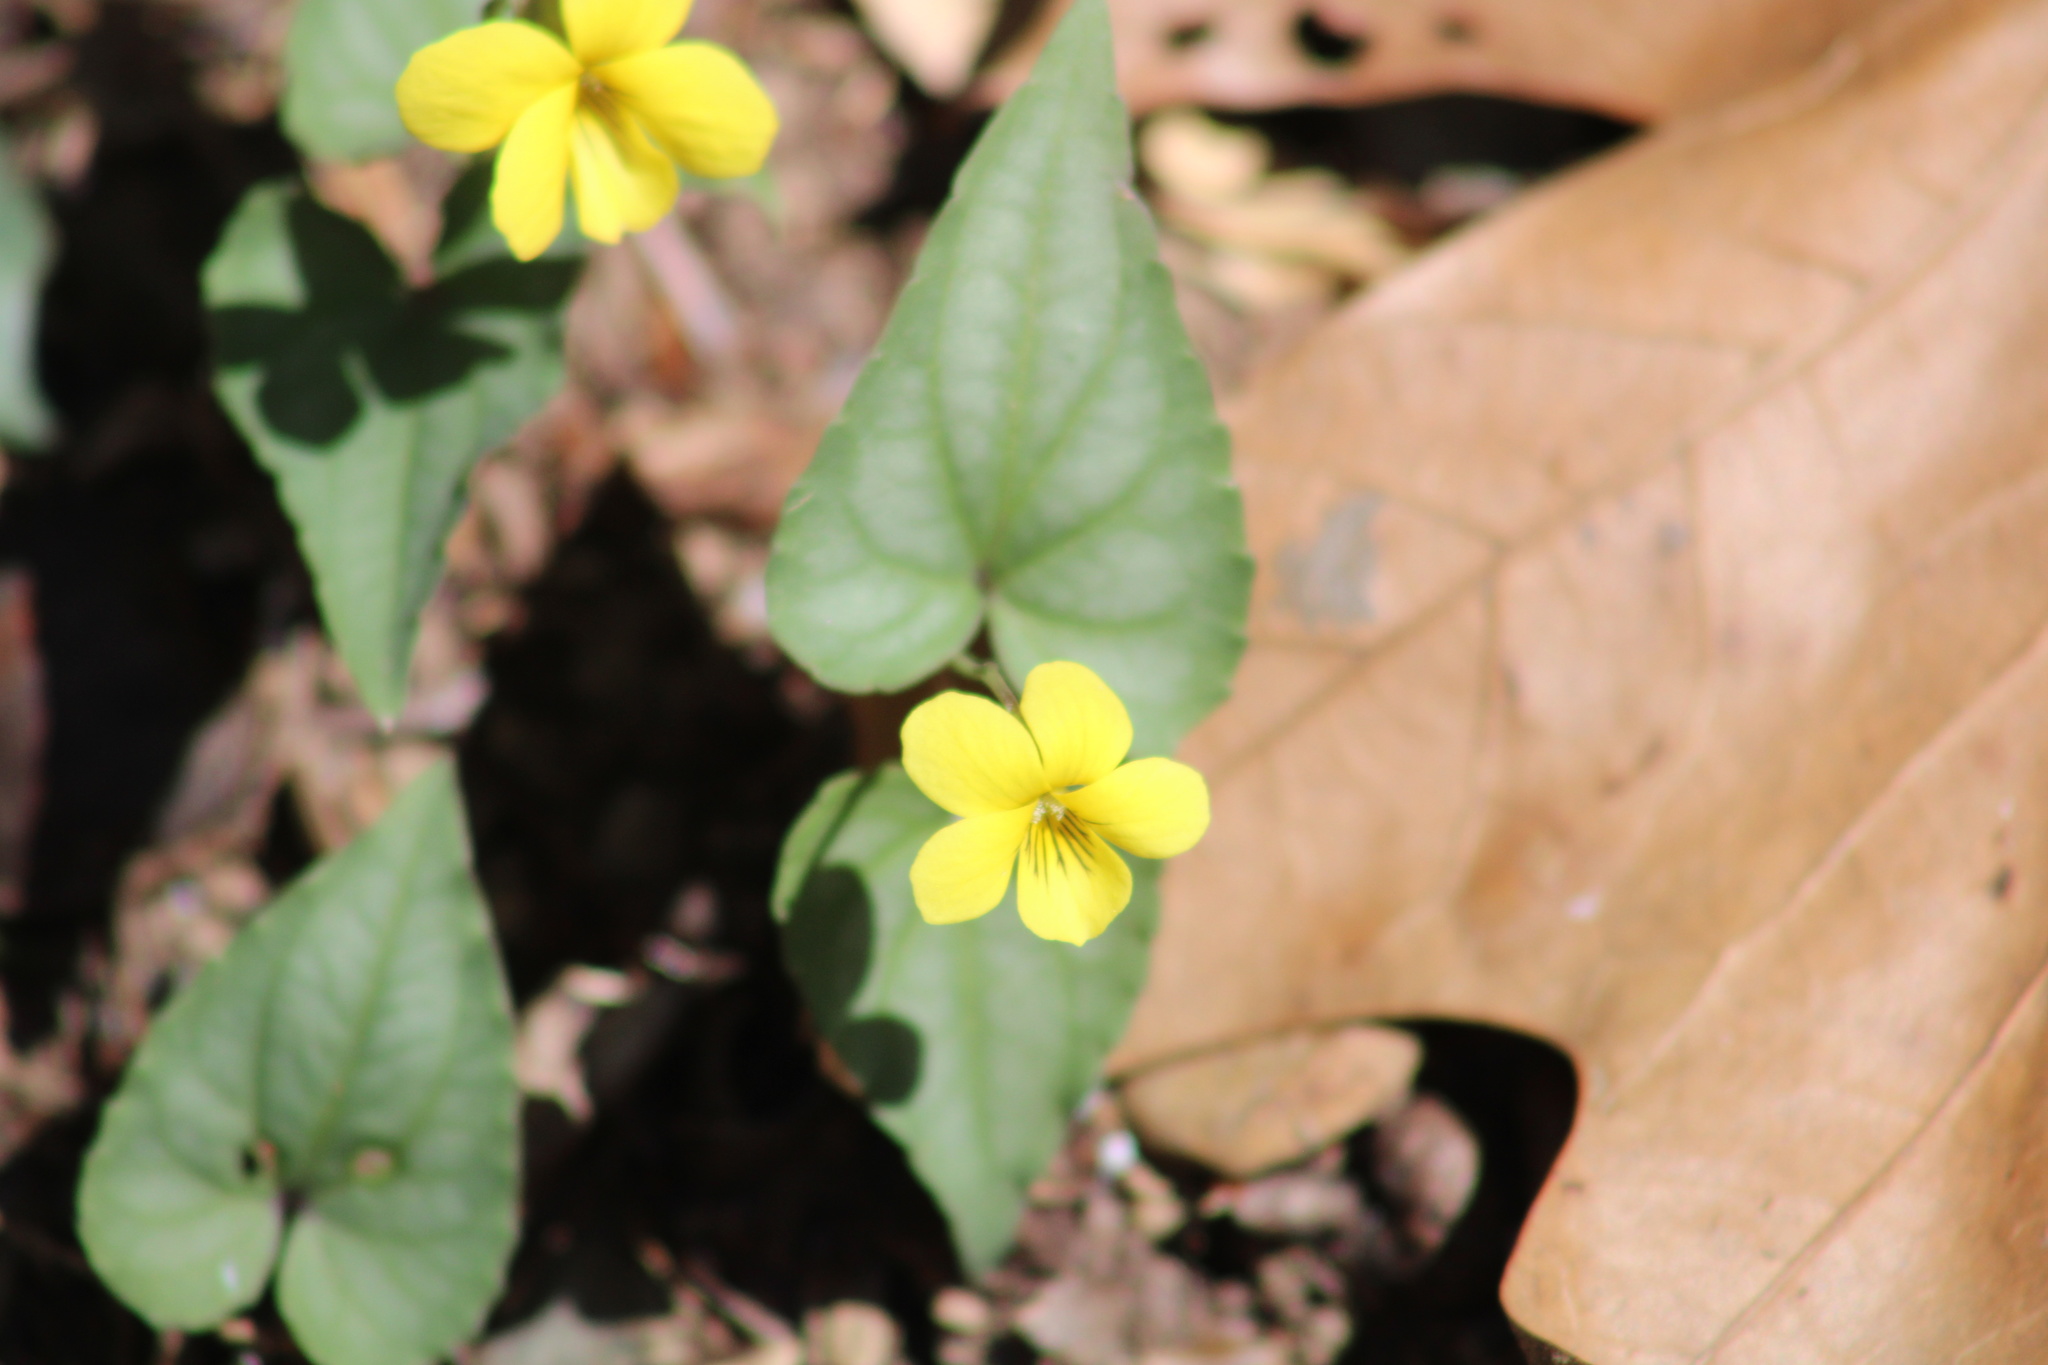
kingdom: Plantae
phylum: Tracheophyta
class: Magnoliopsida
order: Malpighiales
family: Violaceae
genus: Viola
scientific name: Viola hastata
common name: Spear-leaf violet
